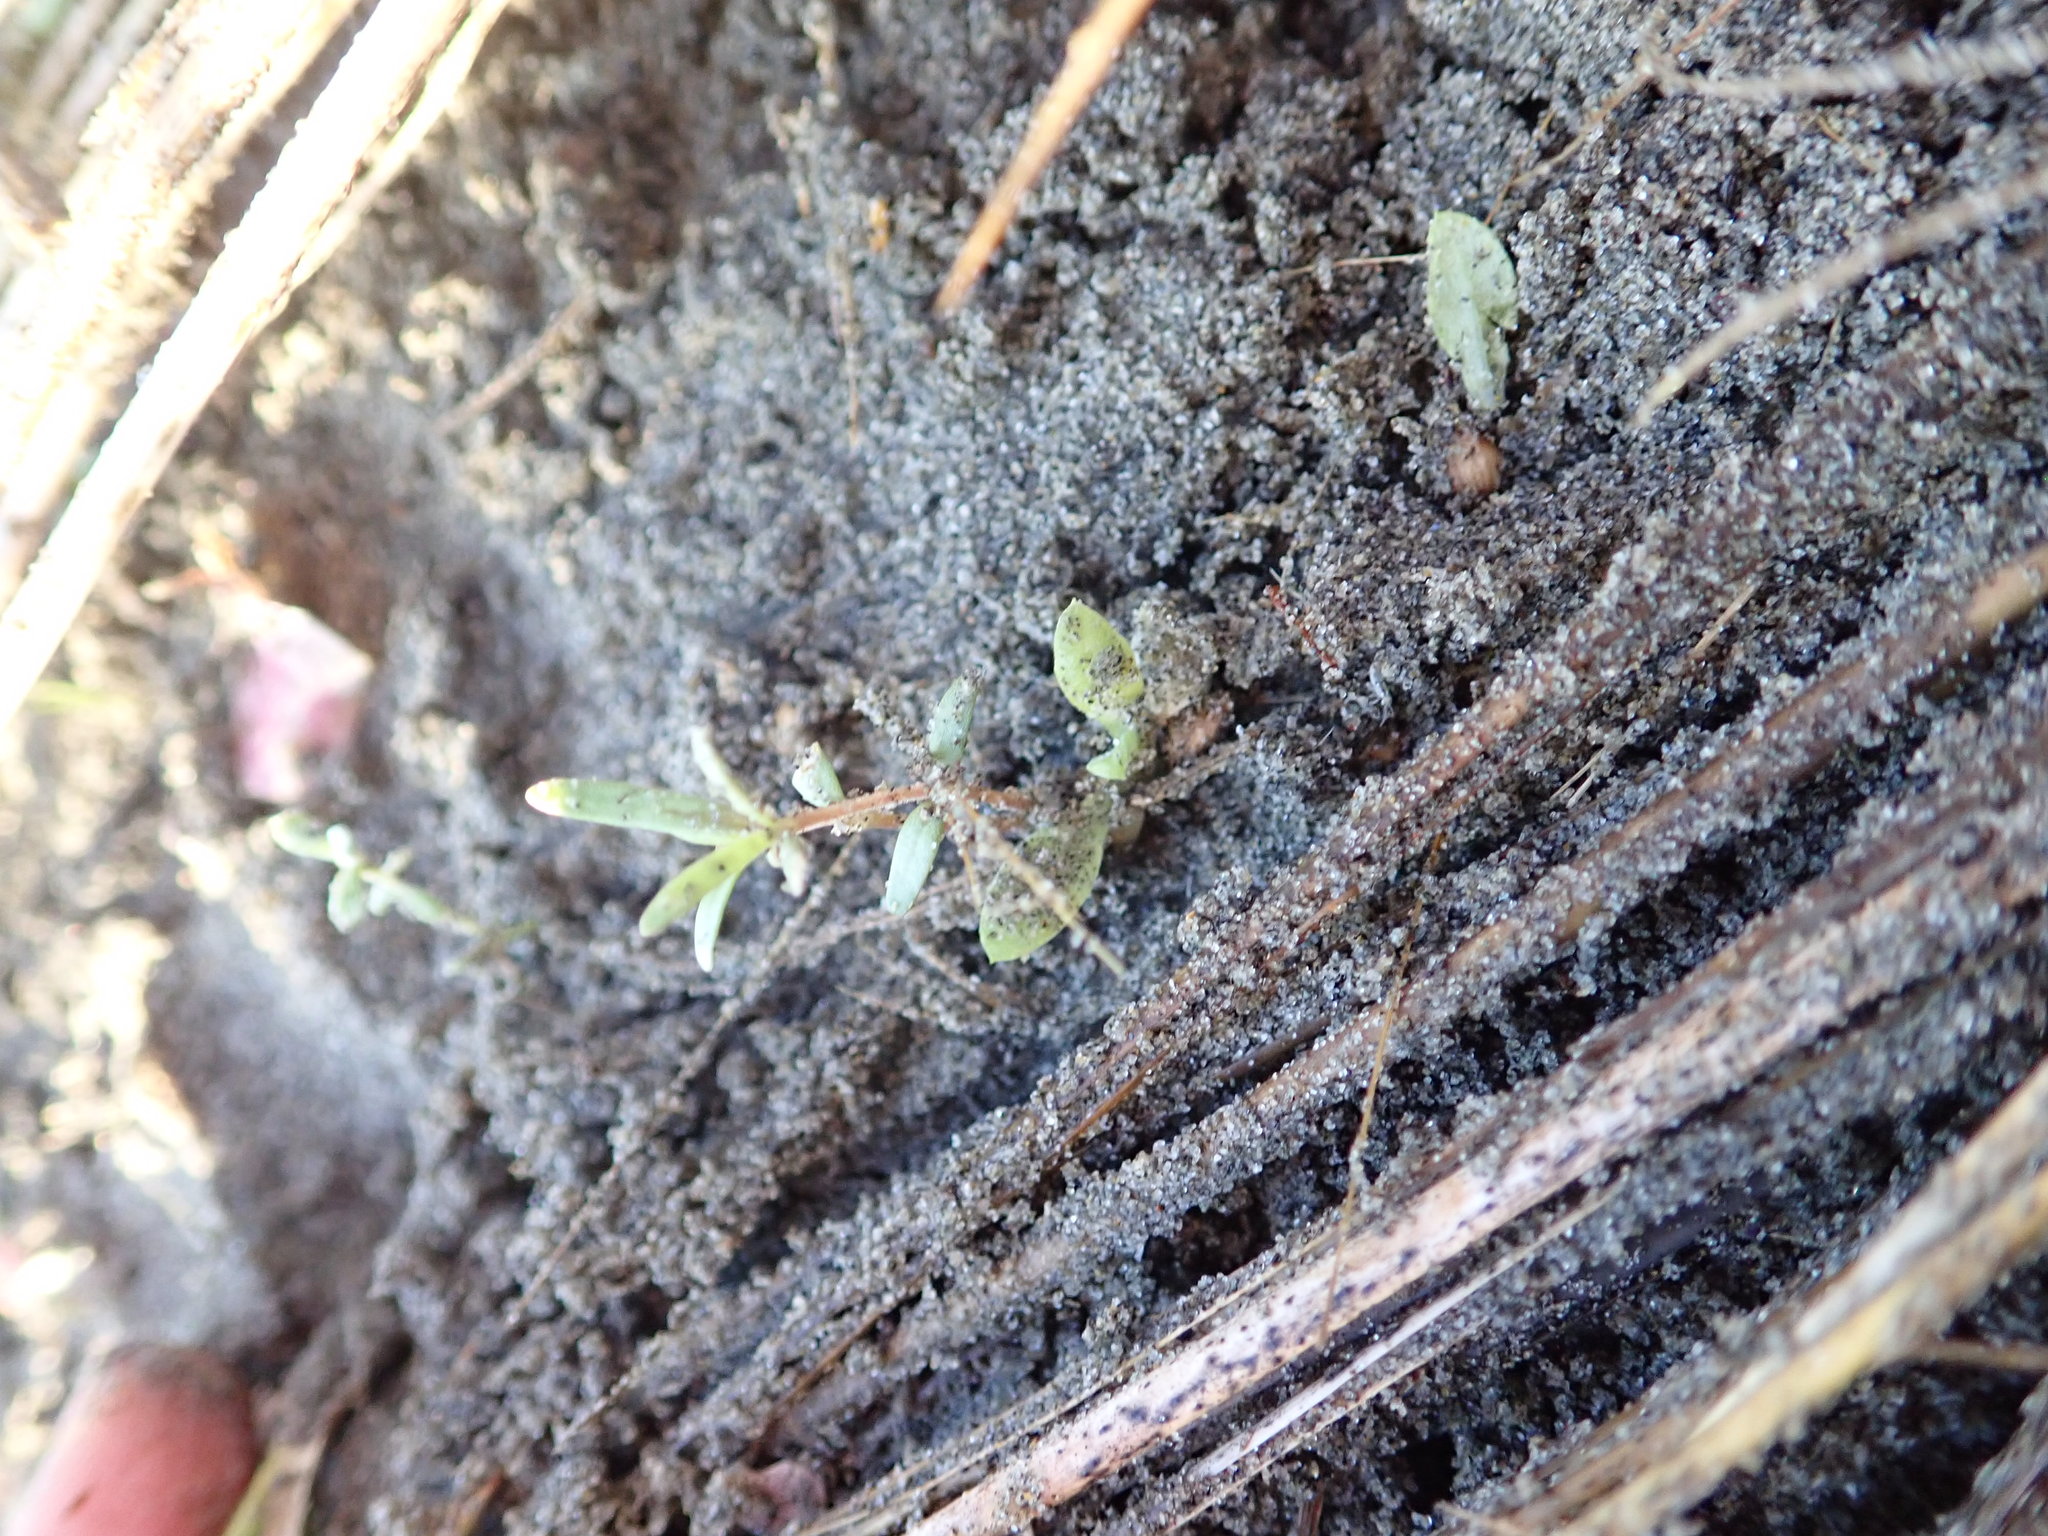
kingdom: Plantae
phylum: Tracheophyta
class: Magnoliopsida
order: Gentianales
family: Rubiaceae
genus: Coprosma
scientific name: Coprosma acerosa
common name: Sand coprosma
